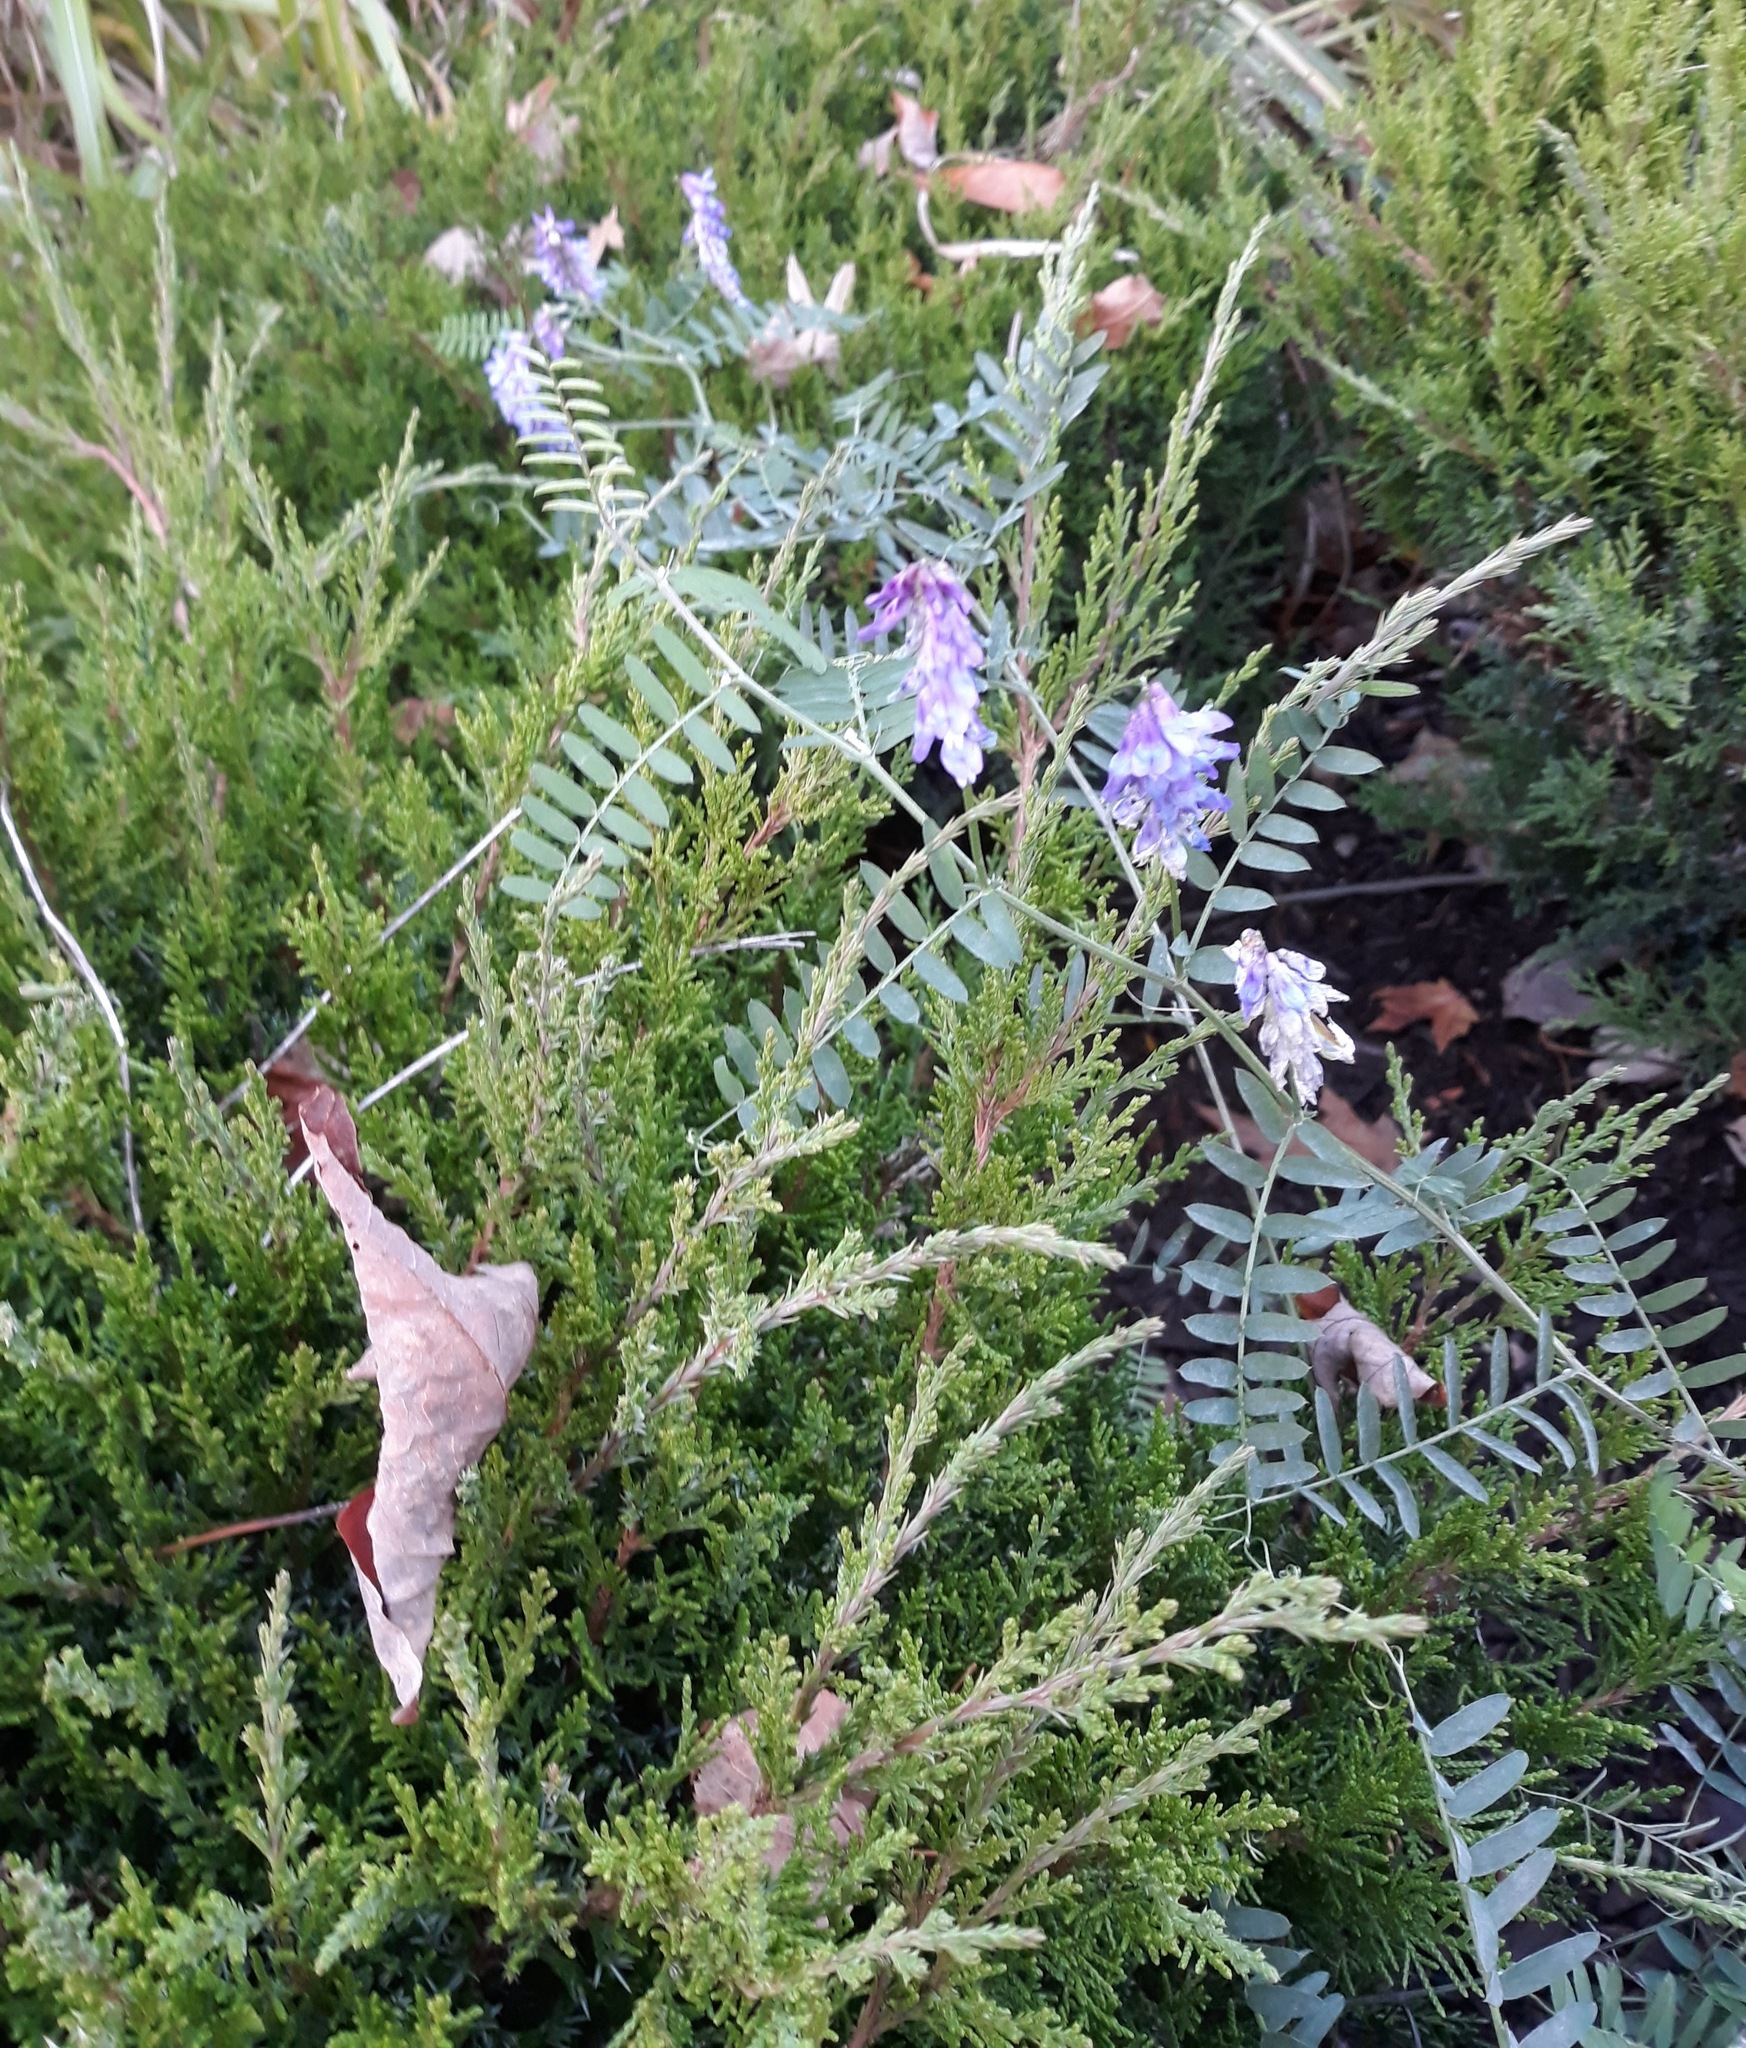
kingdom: Plantae
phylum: Tracheophyta
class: Magnoliopsida
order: Fabales
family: Fabaceae
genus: Vicia
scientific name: Vicia cracca
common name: Bird vetch
